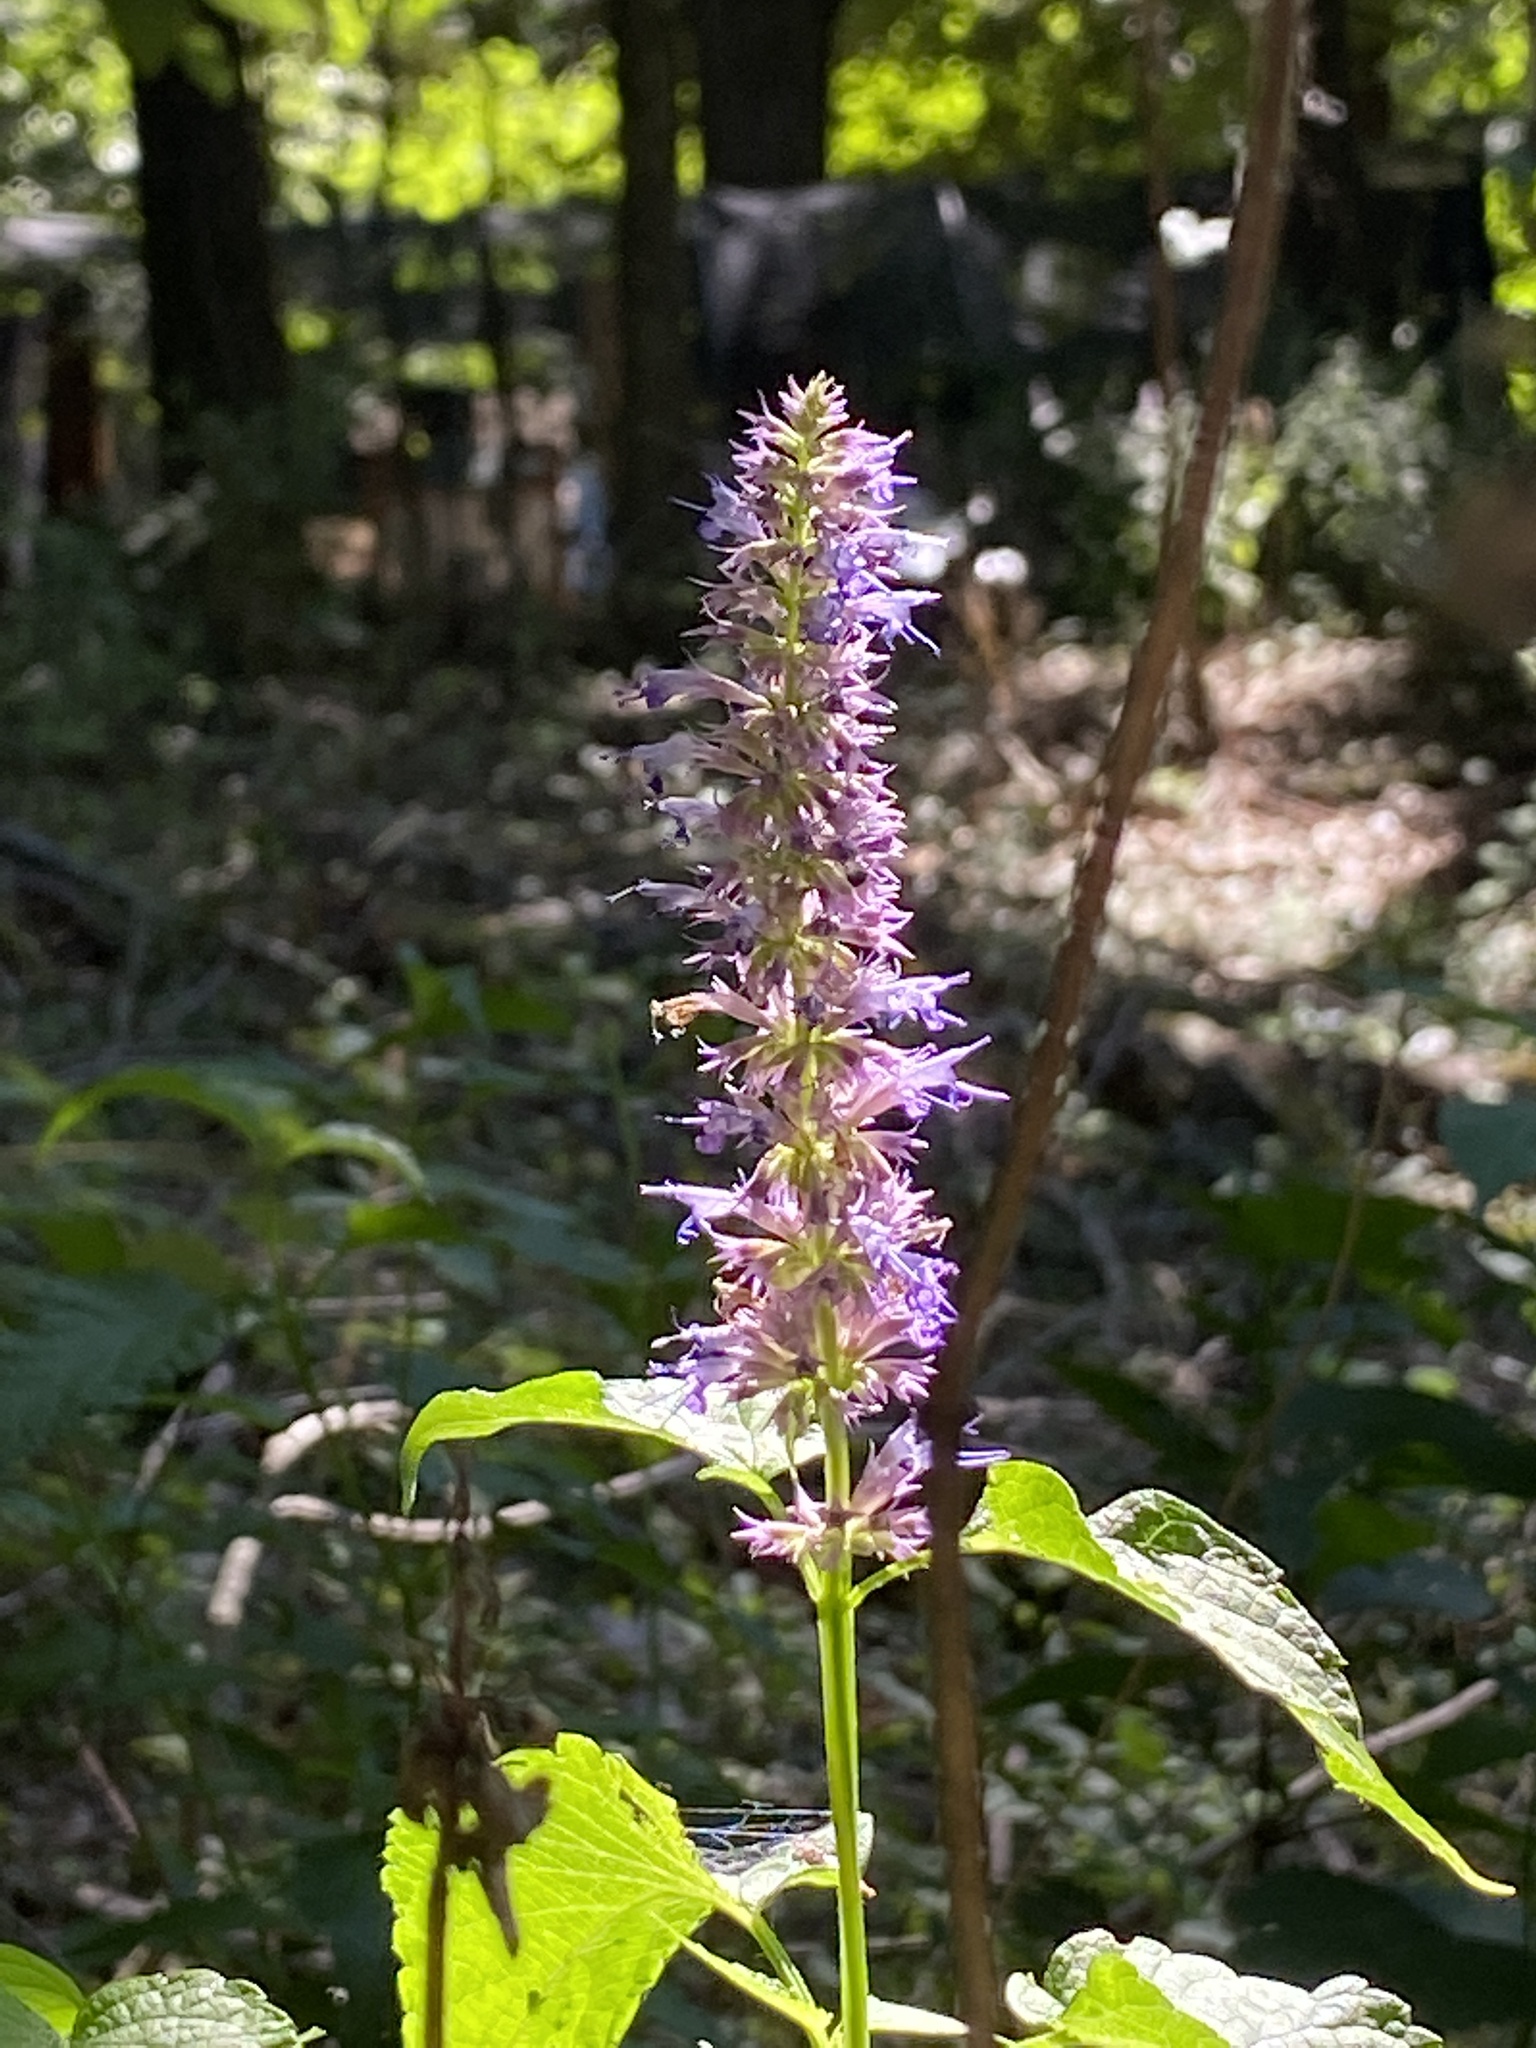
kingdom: Plantae
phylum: Tracheophyta
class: Magnoliopsida
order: Lamiales
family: Lamiaceae
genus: Agastache
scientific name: Agastache foeniculum
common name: Anise hyssop
